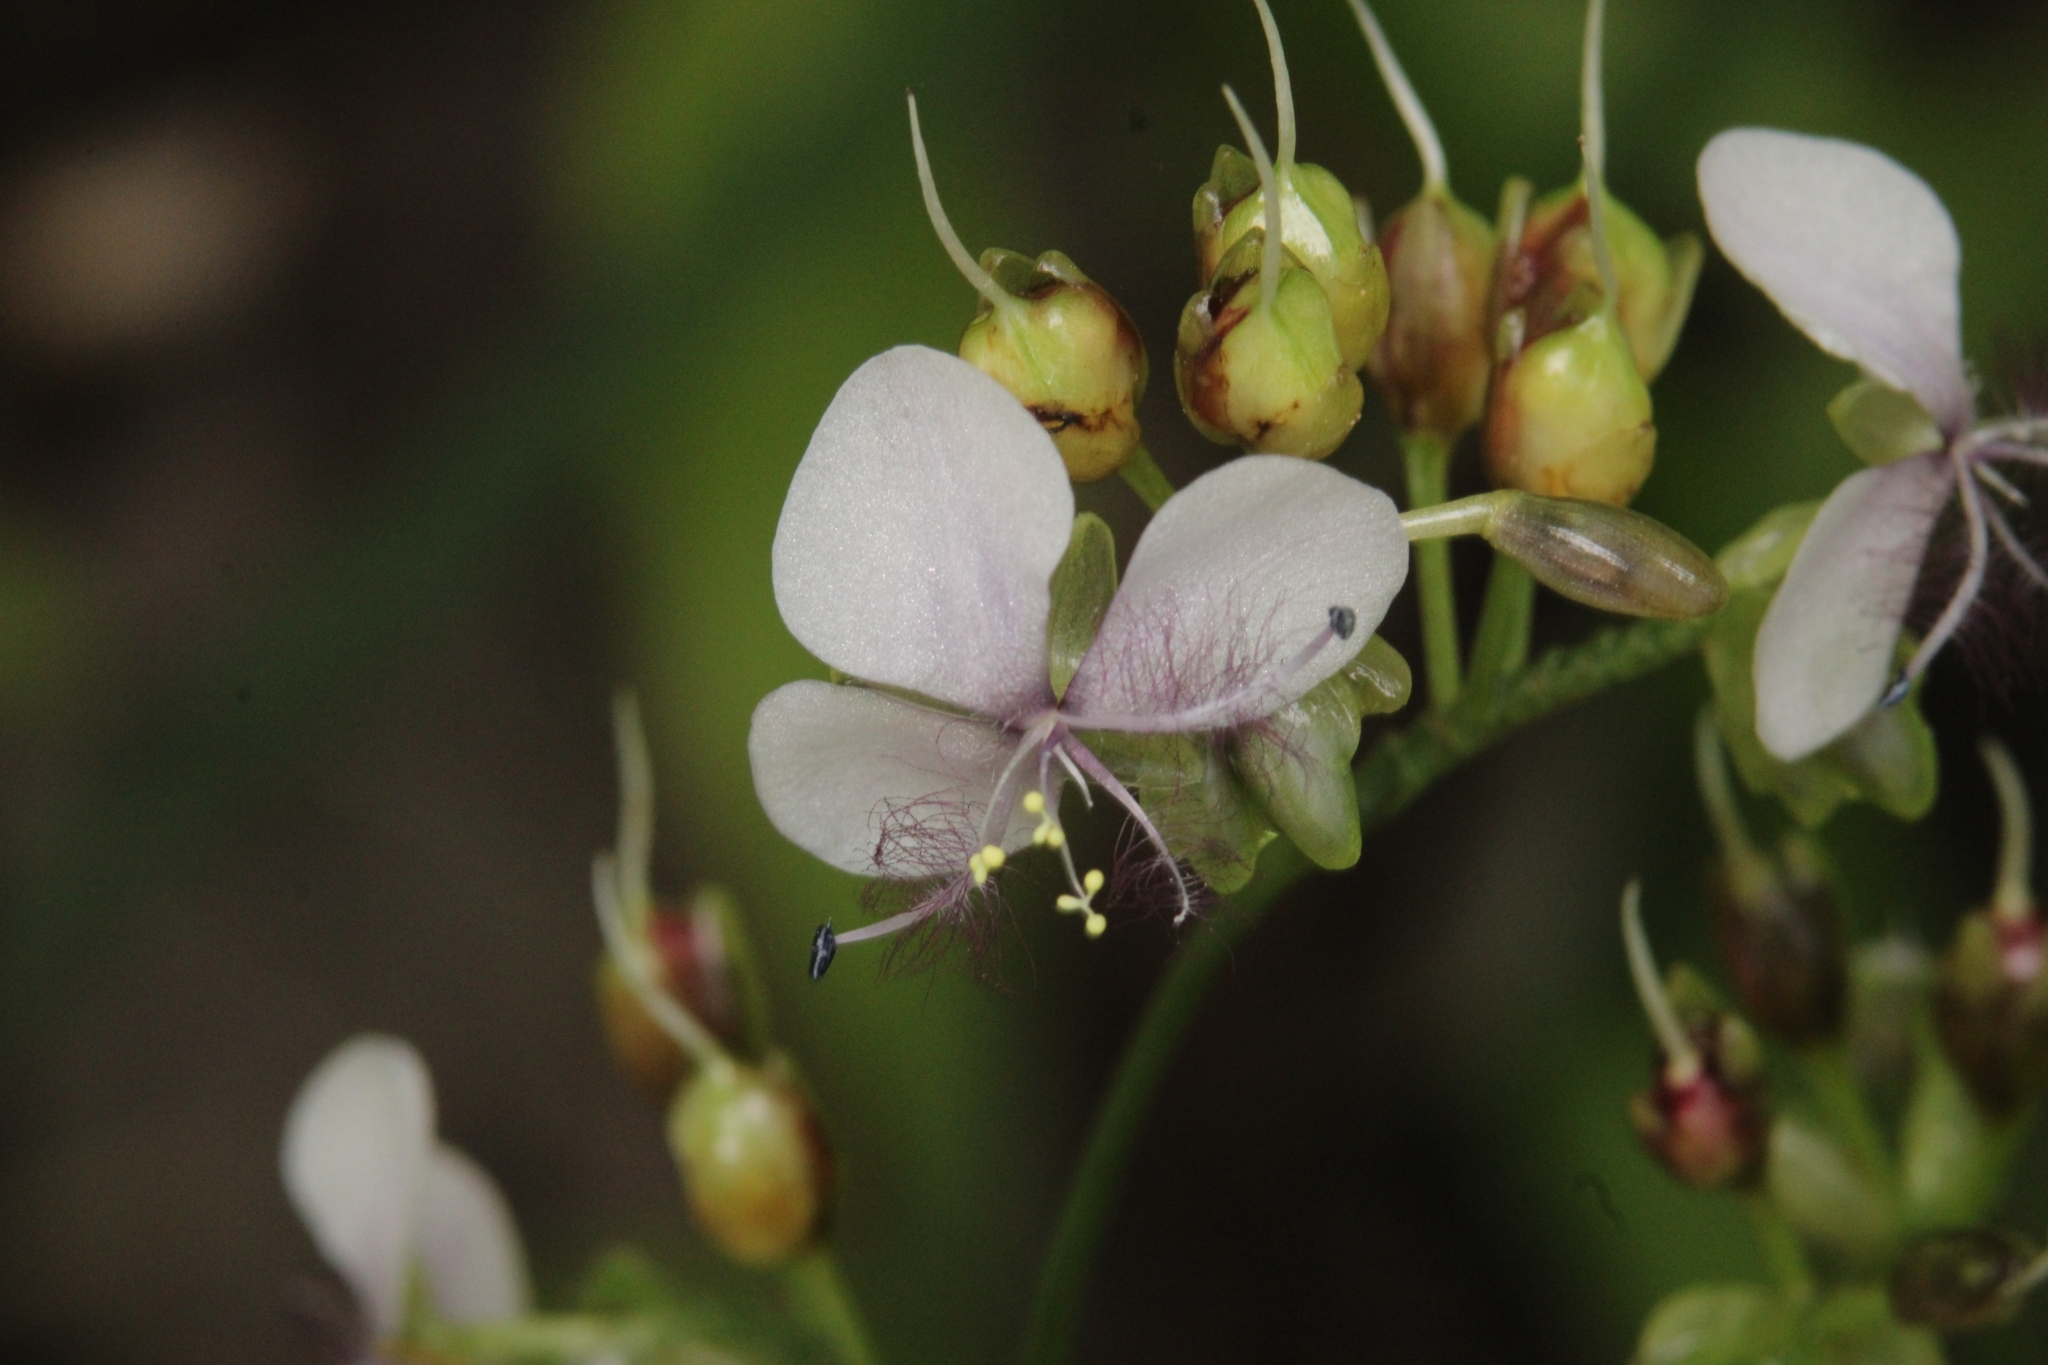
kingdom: Plantae
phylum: Tracheophyta
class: Liliopsida
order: Commelinales
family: Commelinaceae
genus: Murdannia
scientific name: Murdannia simplex
